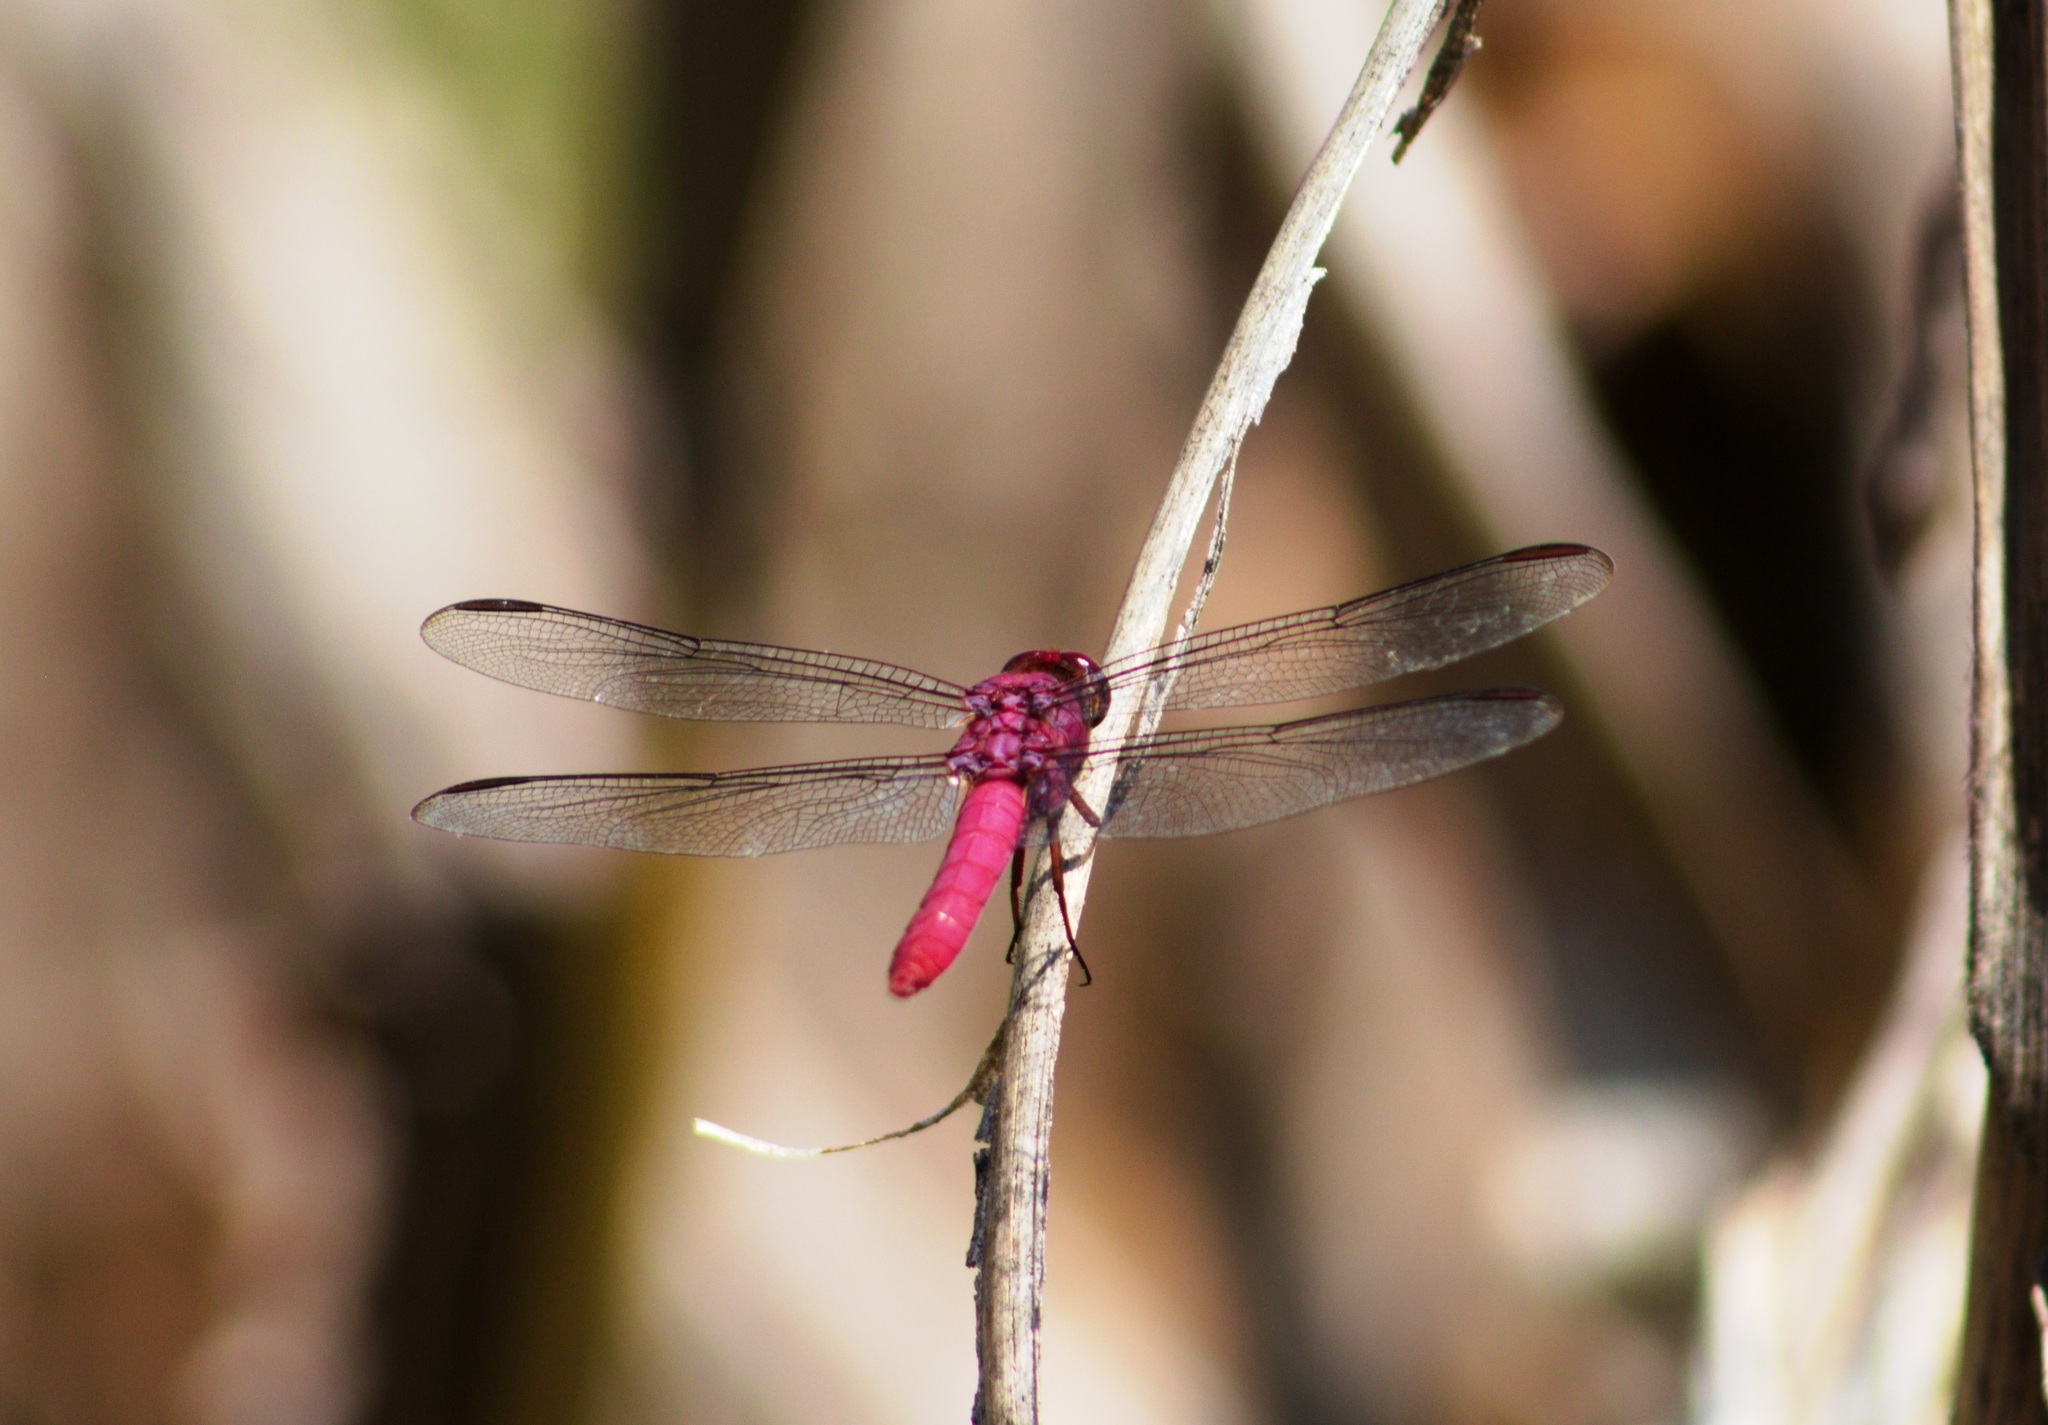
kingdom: Animalia
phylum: Arthropoda
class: Insecta
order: Odonata
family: Libellulidae
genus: Orthemis
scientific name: Orthemis discolor
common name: Carmine skimmer
